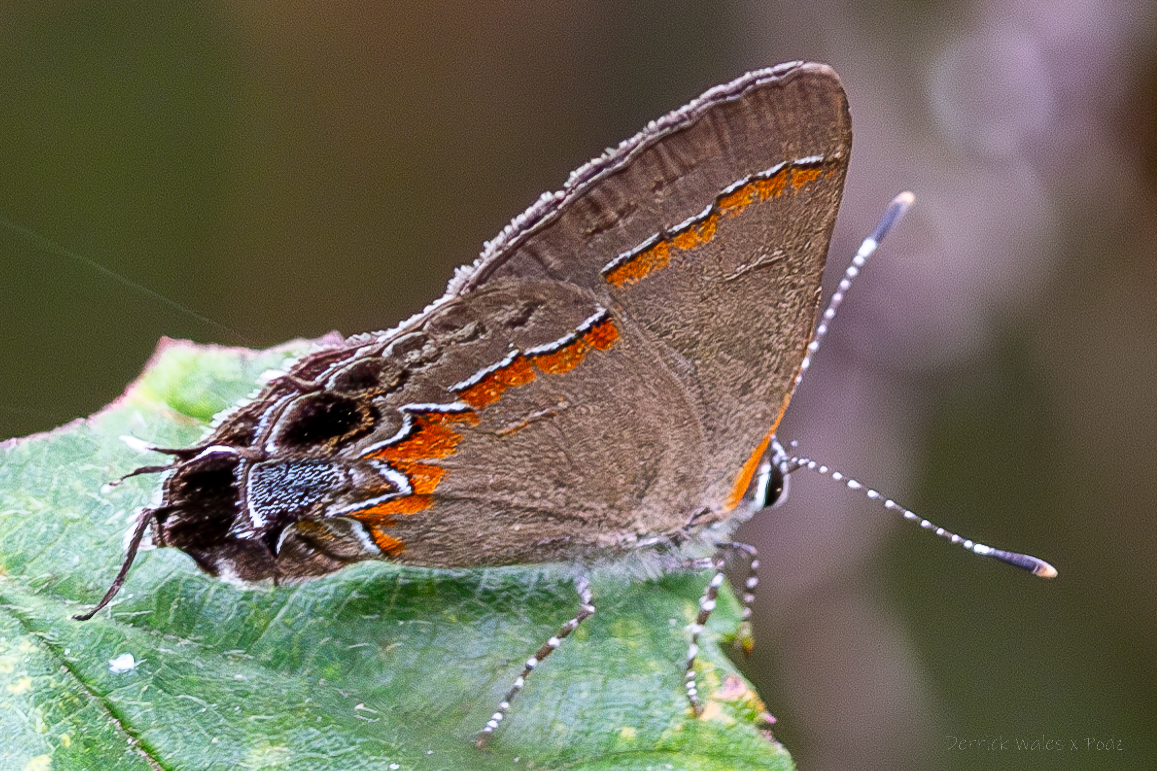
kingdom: Animalia
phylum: Arthropoda
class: Insecta
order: Lepidoptera
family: Lycaenidae
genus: Calycopis
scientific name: Calycopis cecrops
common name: Red-banded hairstreak
